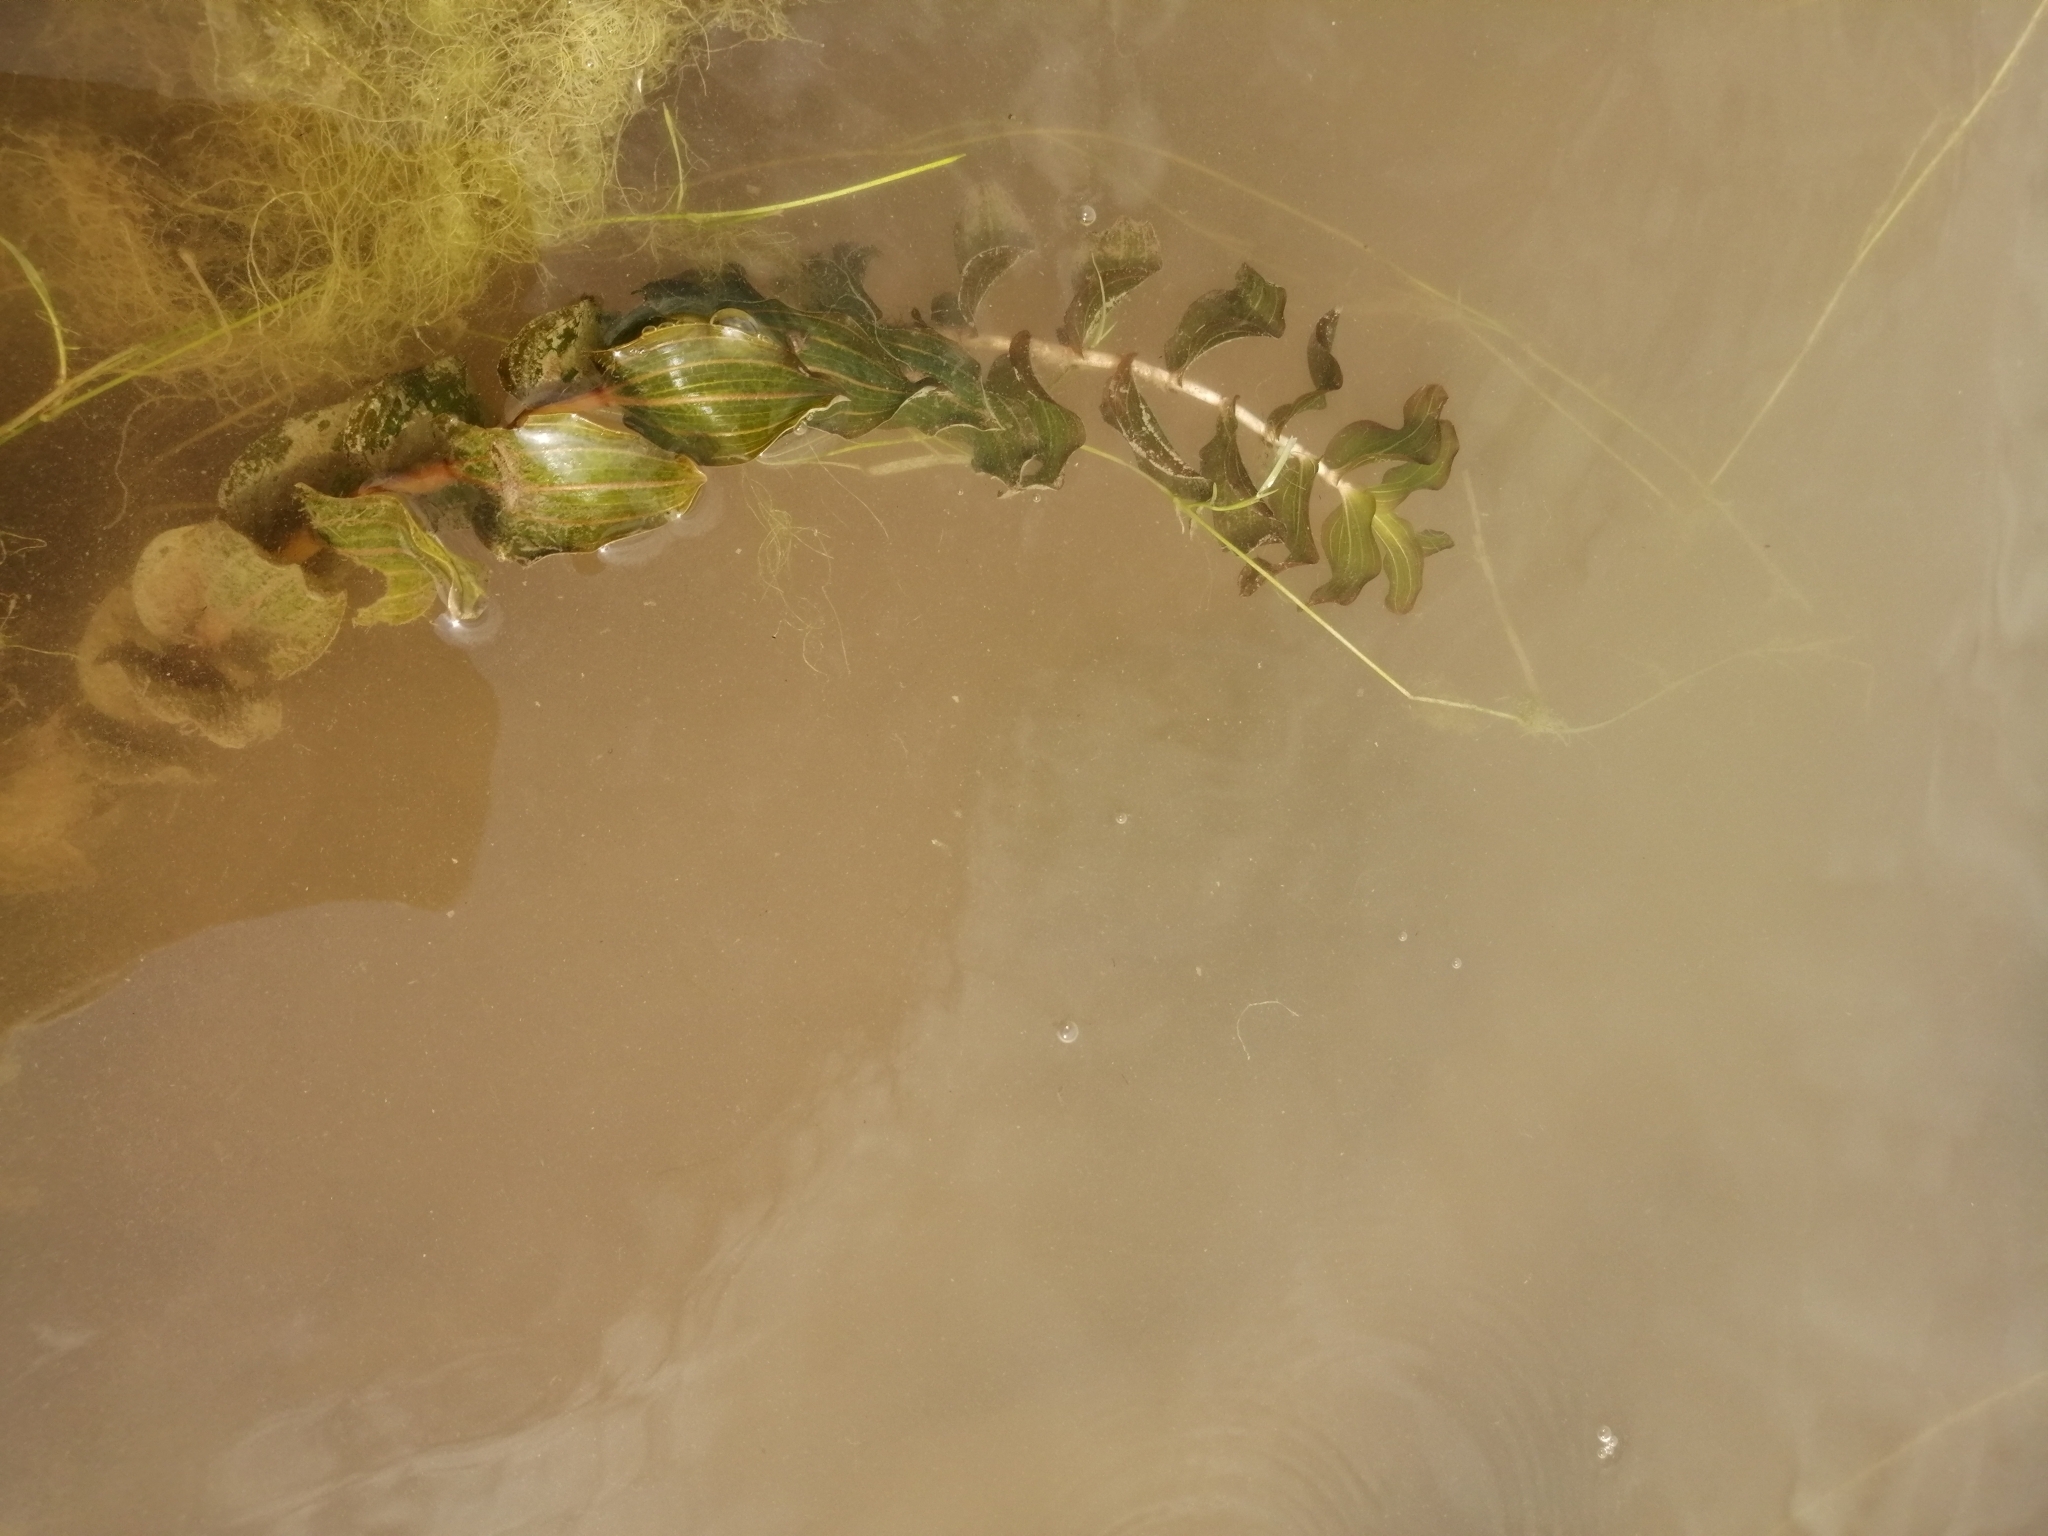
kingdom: Plantae
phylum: Tracheophyta
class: Liliopsida
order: Alismatales
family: Potamogetonaceae
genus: Potamogeton
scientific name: Potamogeton perfoliatus
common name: Perfoliate pondweed
